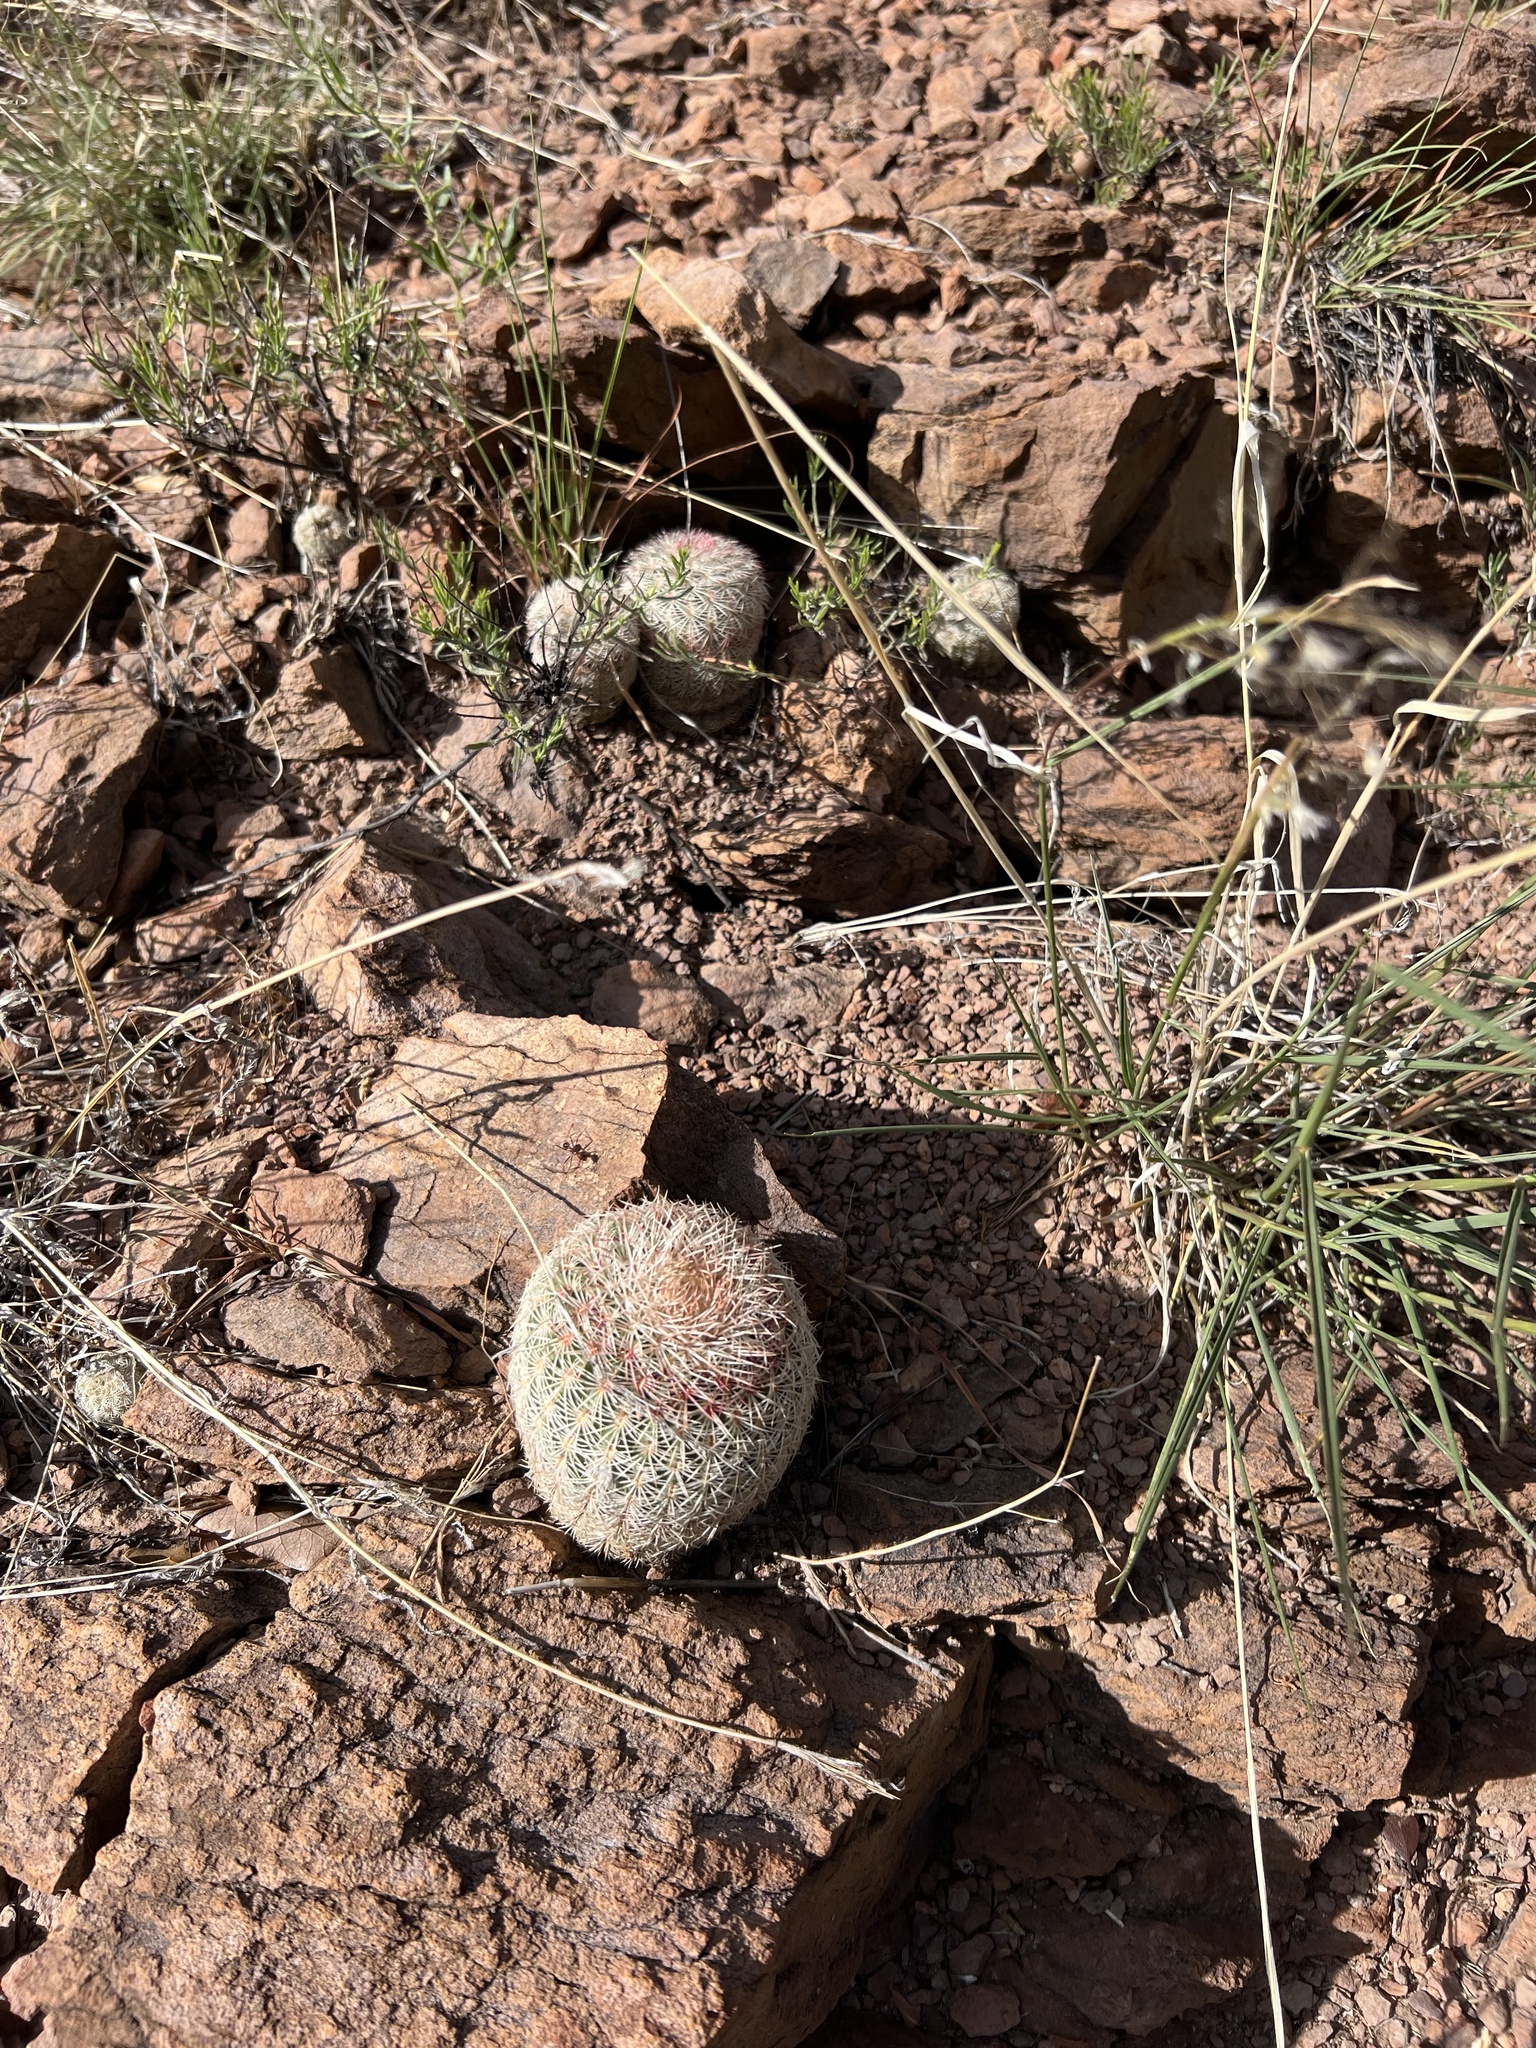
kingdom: Plantae
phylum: Tracheophyta
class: Magnoliopsida
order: Caryophyllales
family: Cactaceae
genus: Echinocereus
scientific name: Echinocereus rigidissimus
